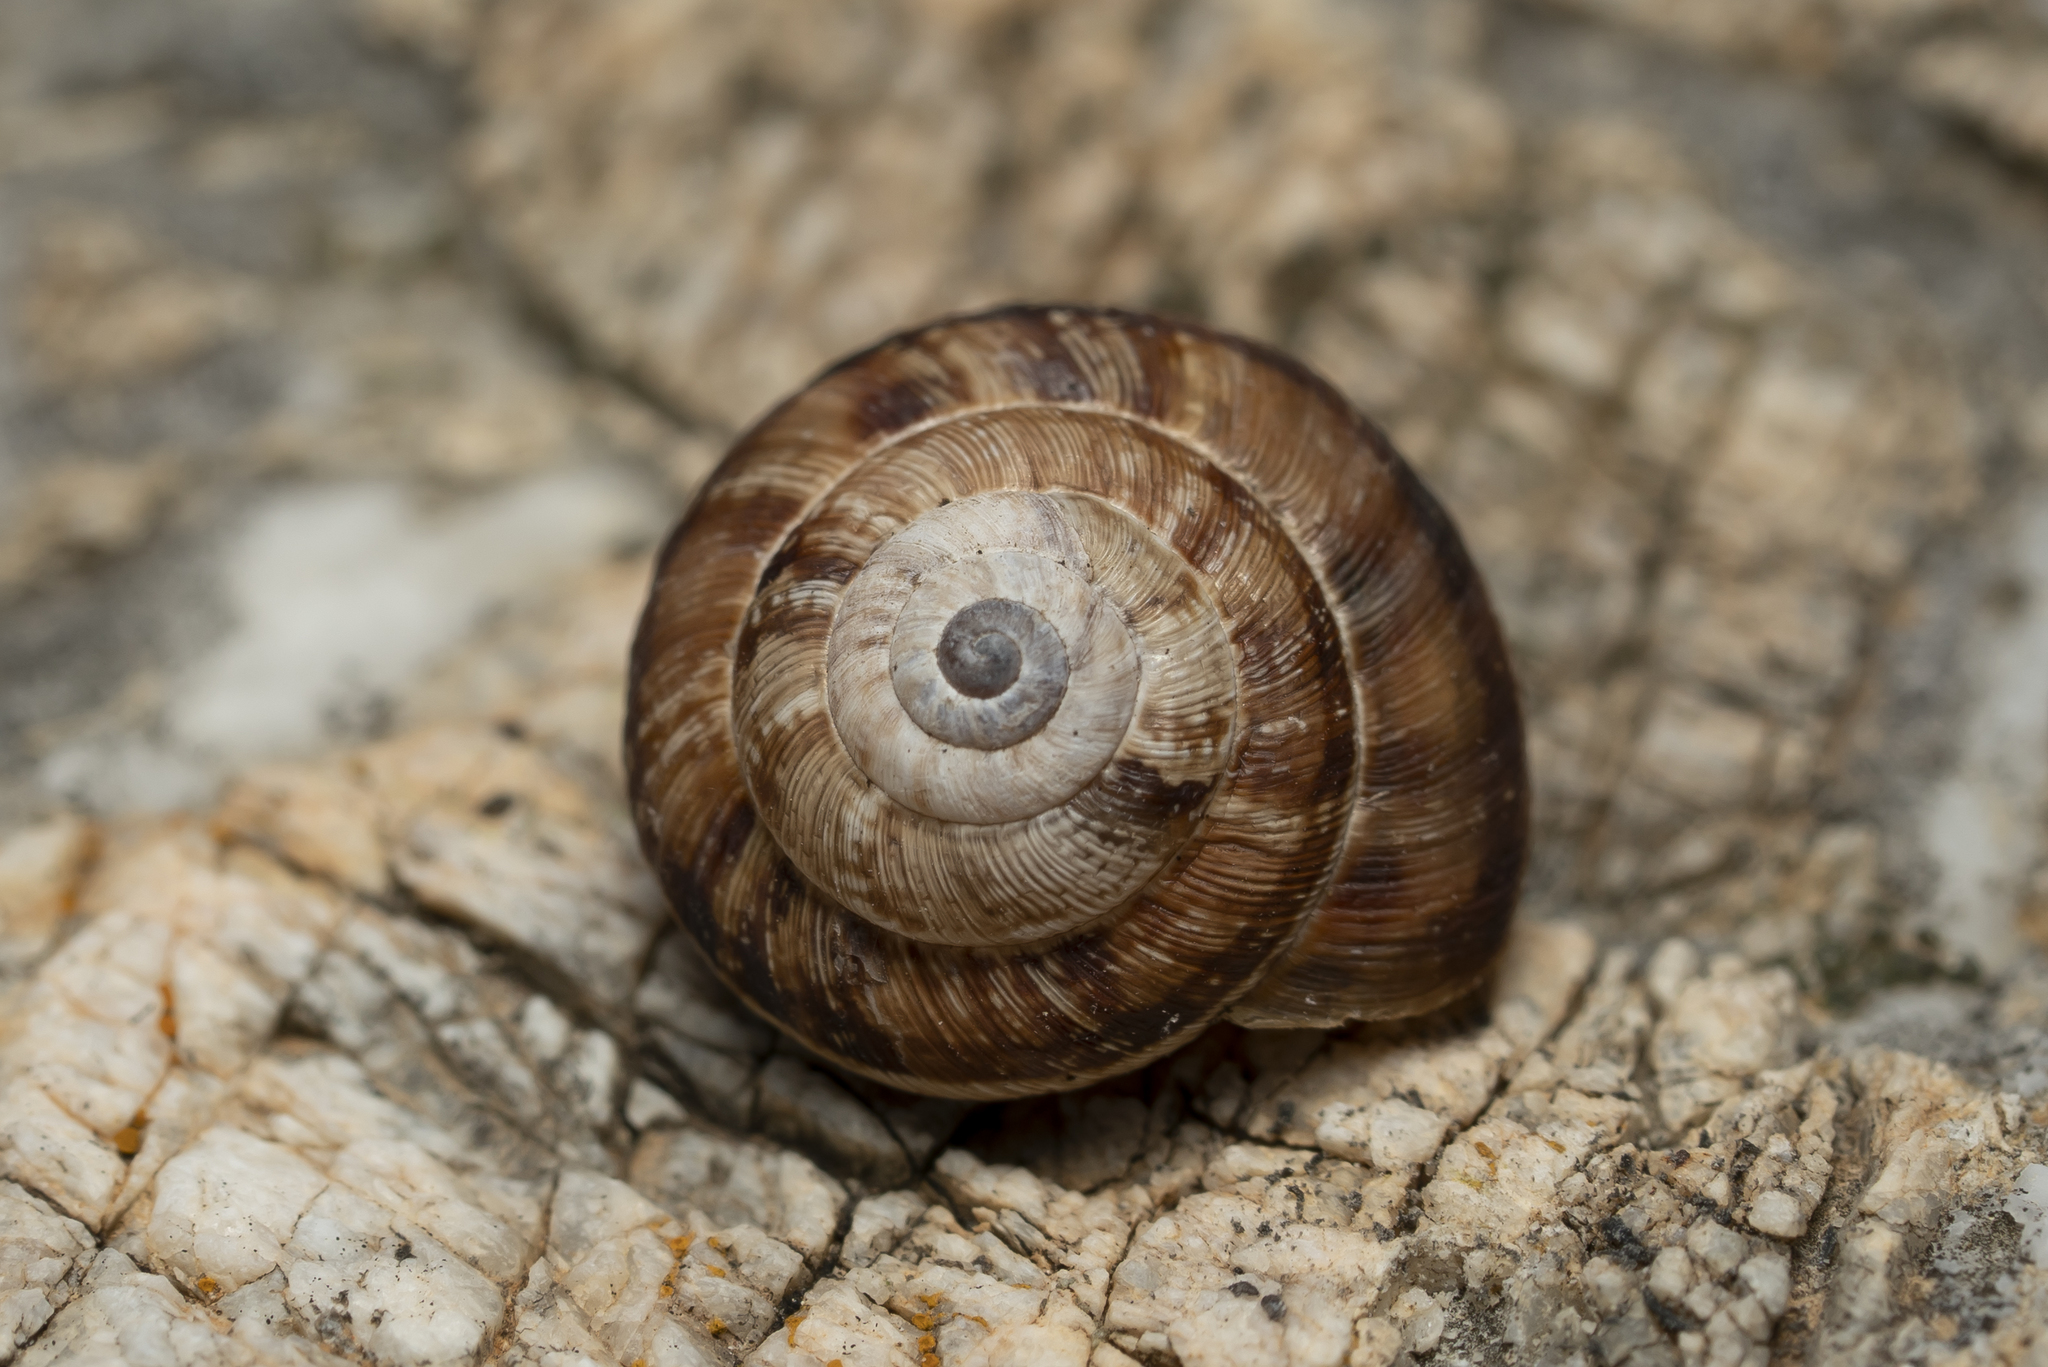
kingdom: Animalia
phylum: Mollusca
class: Gastropoda
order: Stylommatophora
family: Geomitridae
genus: Xerocrassa
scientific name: Xerocrassa cretica
